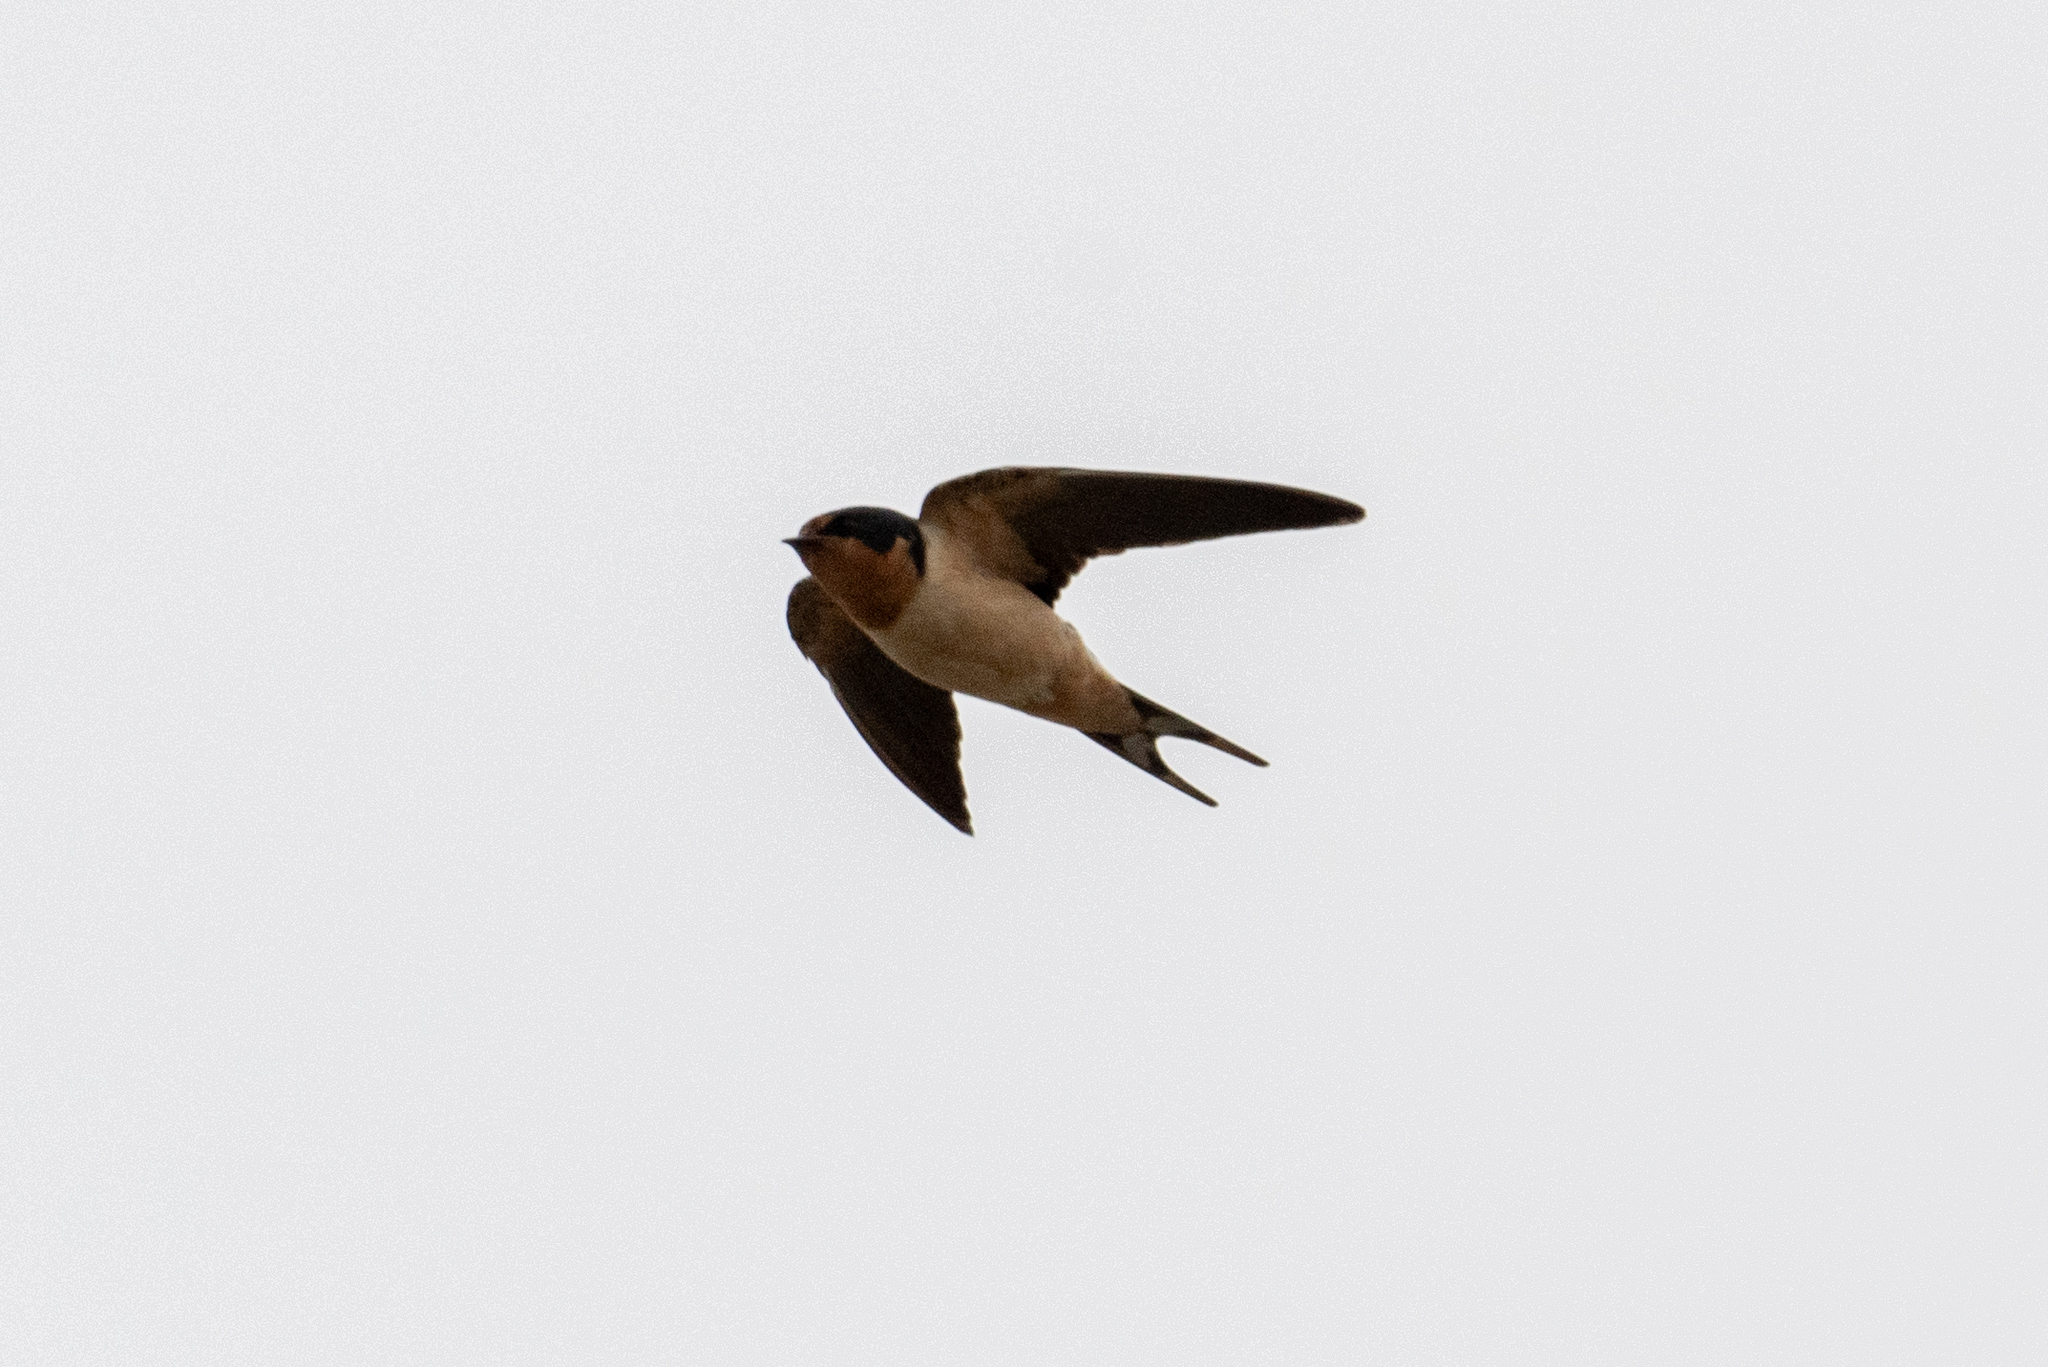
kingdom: Animalia
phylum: Chordata
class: Aves
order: Passeriformes
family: Hirundinidae
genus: Hirundo
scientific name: Hirundo rustica
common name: Barn swallow
